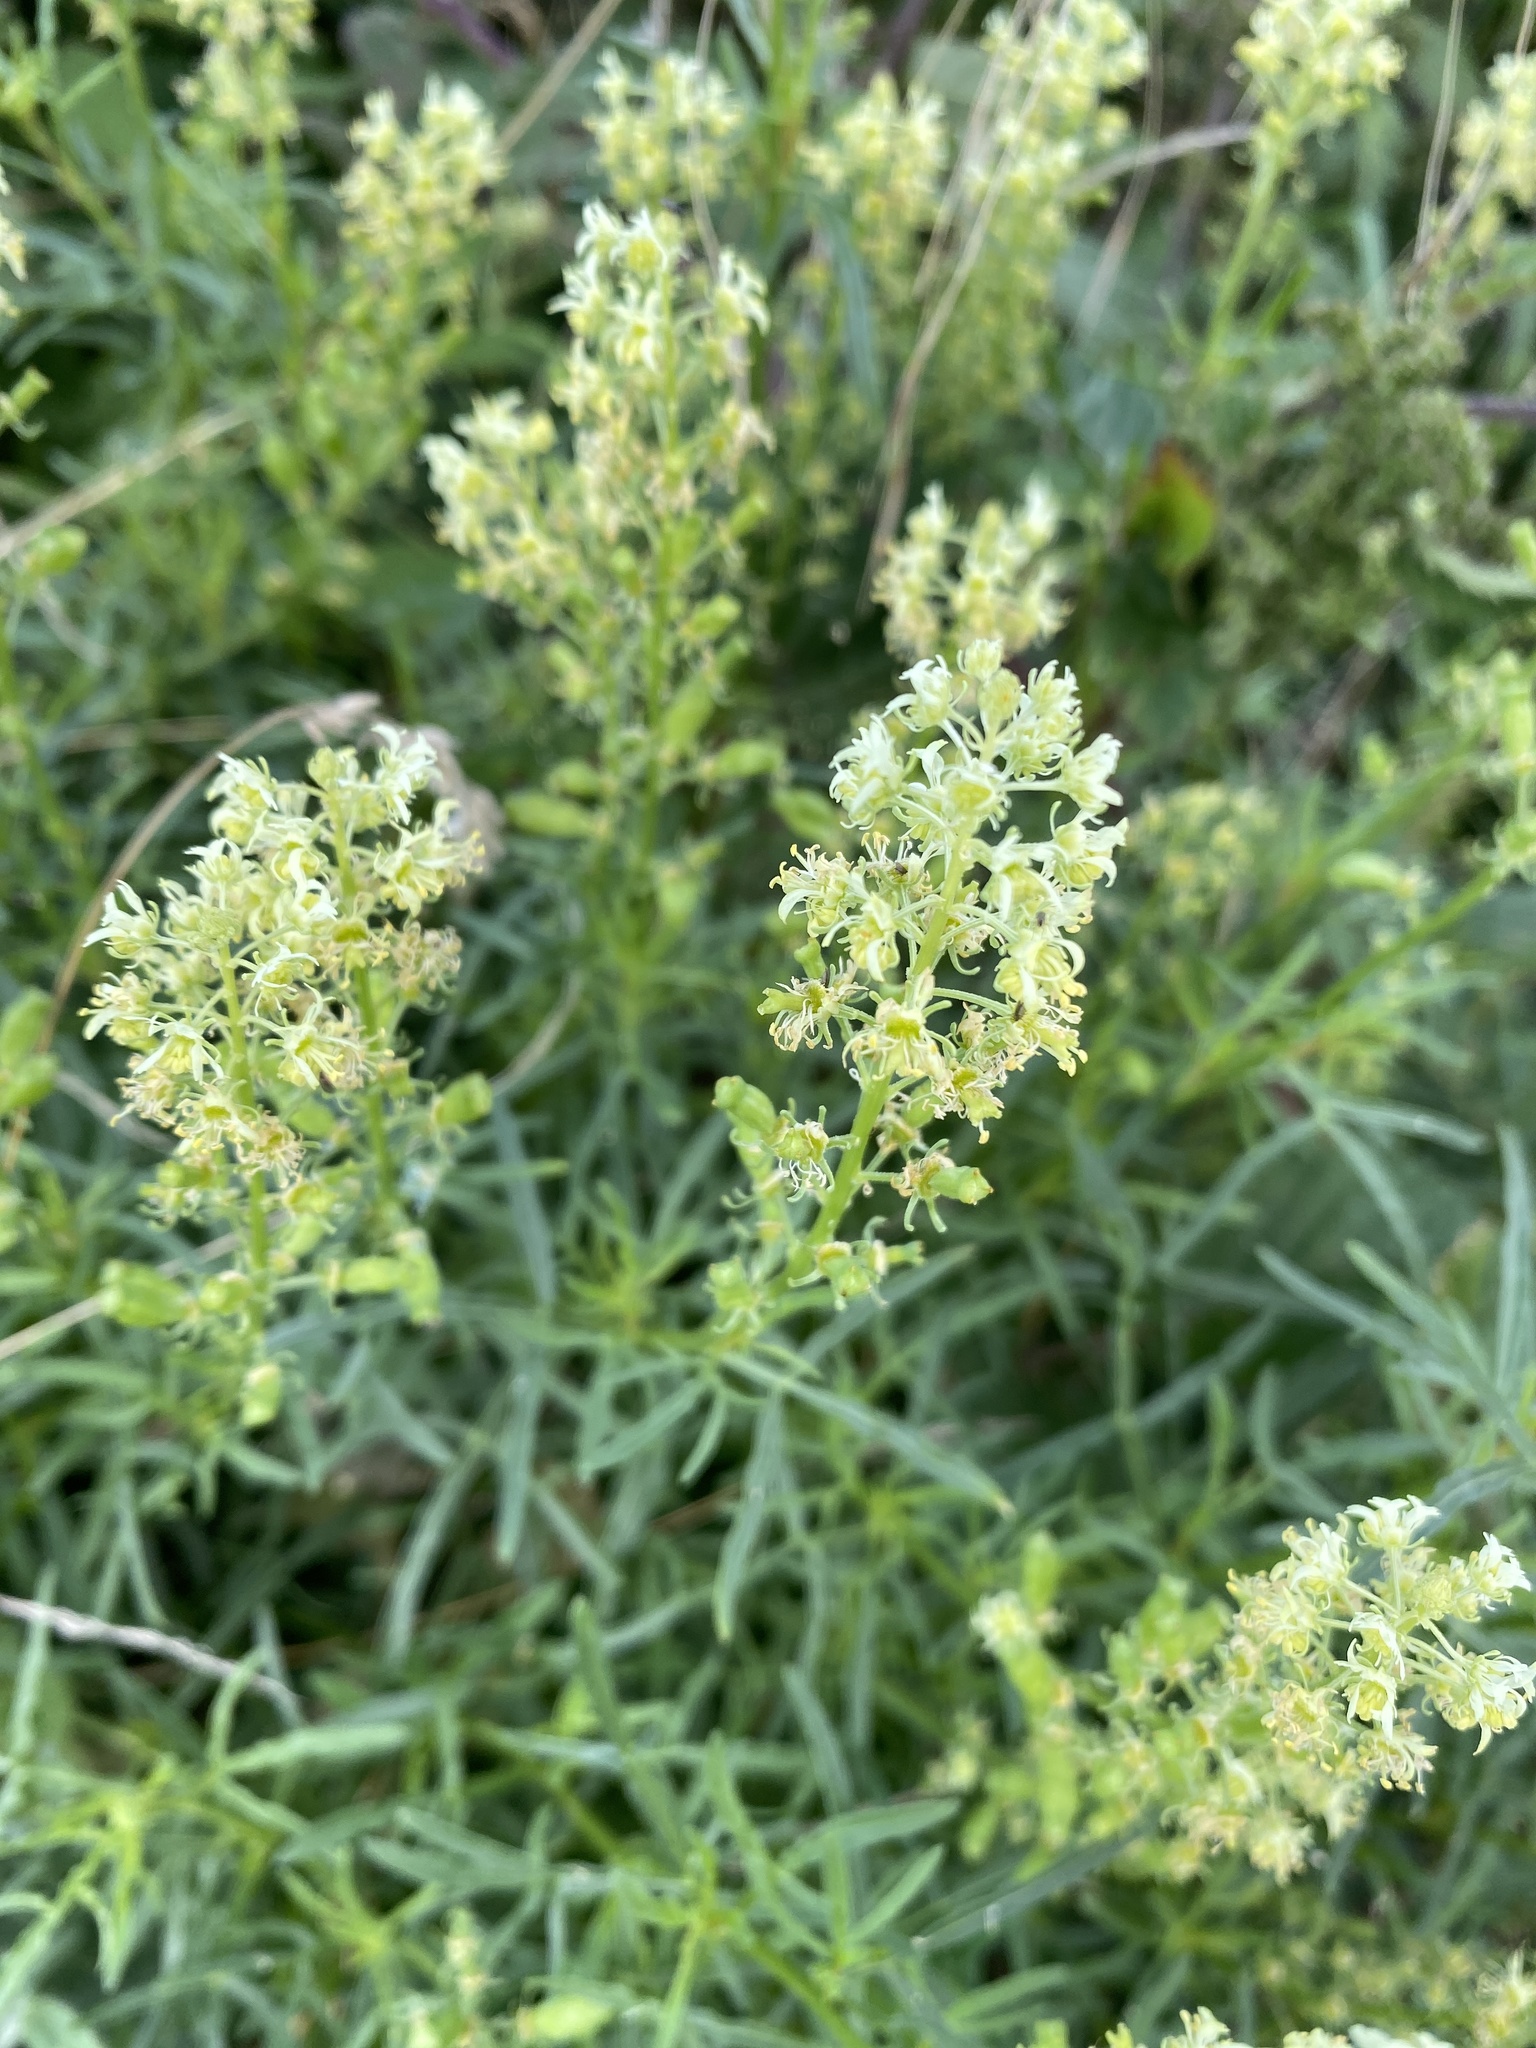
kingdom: Plantae
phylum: Tracheophyta
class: Magnoliopsida
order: Brassicales
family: Resedaceae
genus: Reseda
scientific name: Reseda lutea
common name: Wild mignonette
